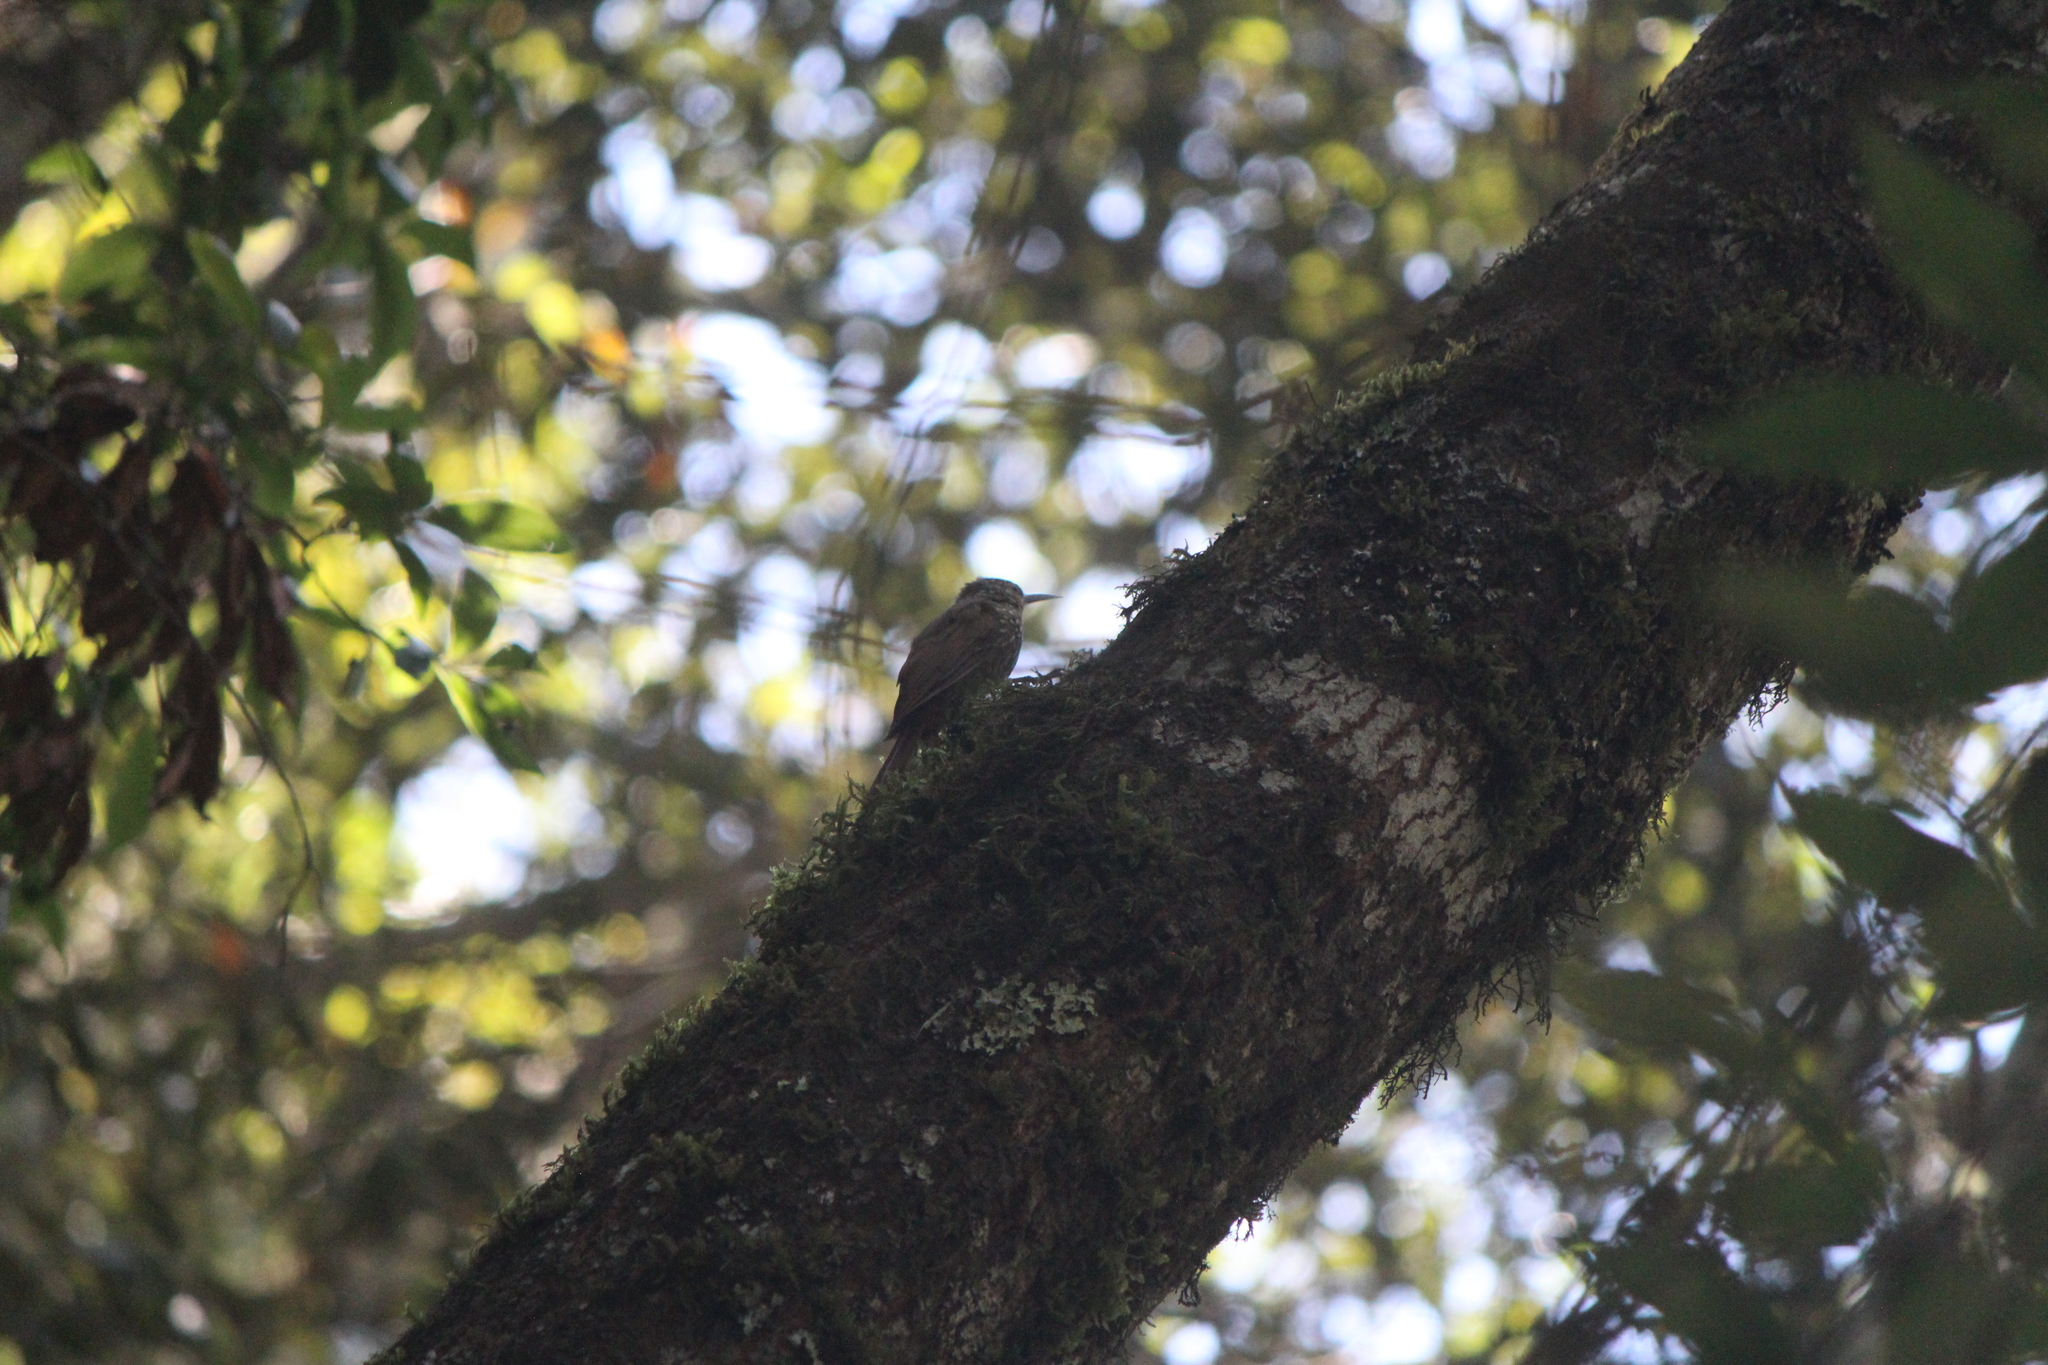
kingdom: Animalia
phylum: Chordata
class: Aves
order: Passeriformes
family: Furnariidae
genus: Lepidocolaptes
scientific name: Lepidocolaptes affinis
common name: Spot-crowned woodcreeper
